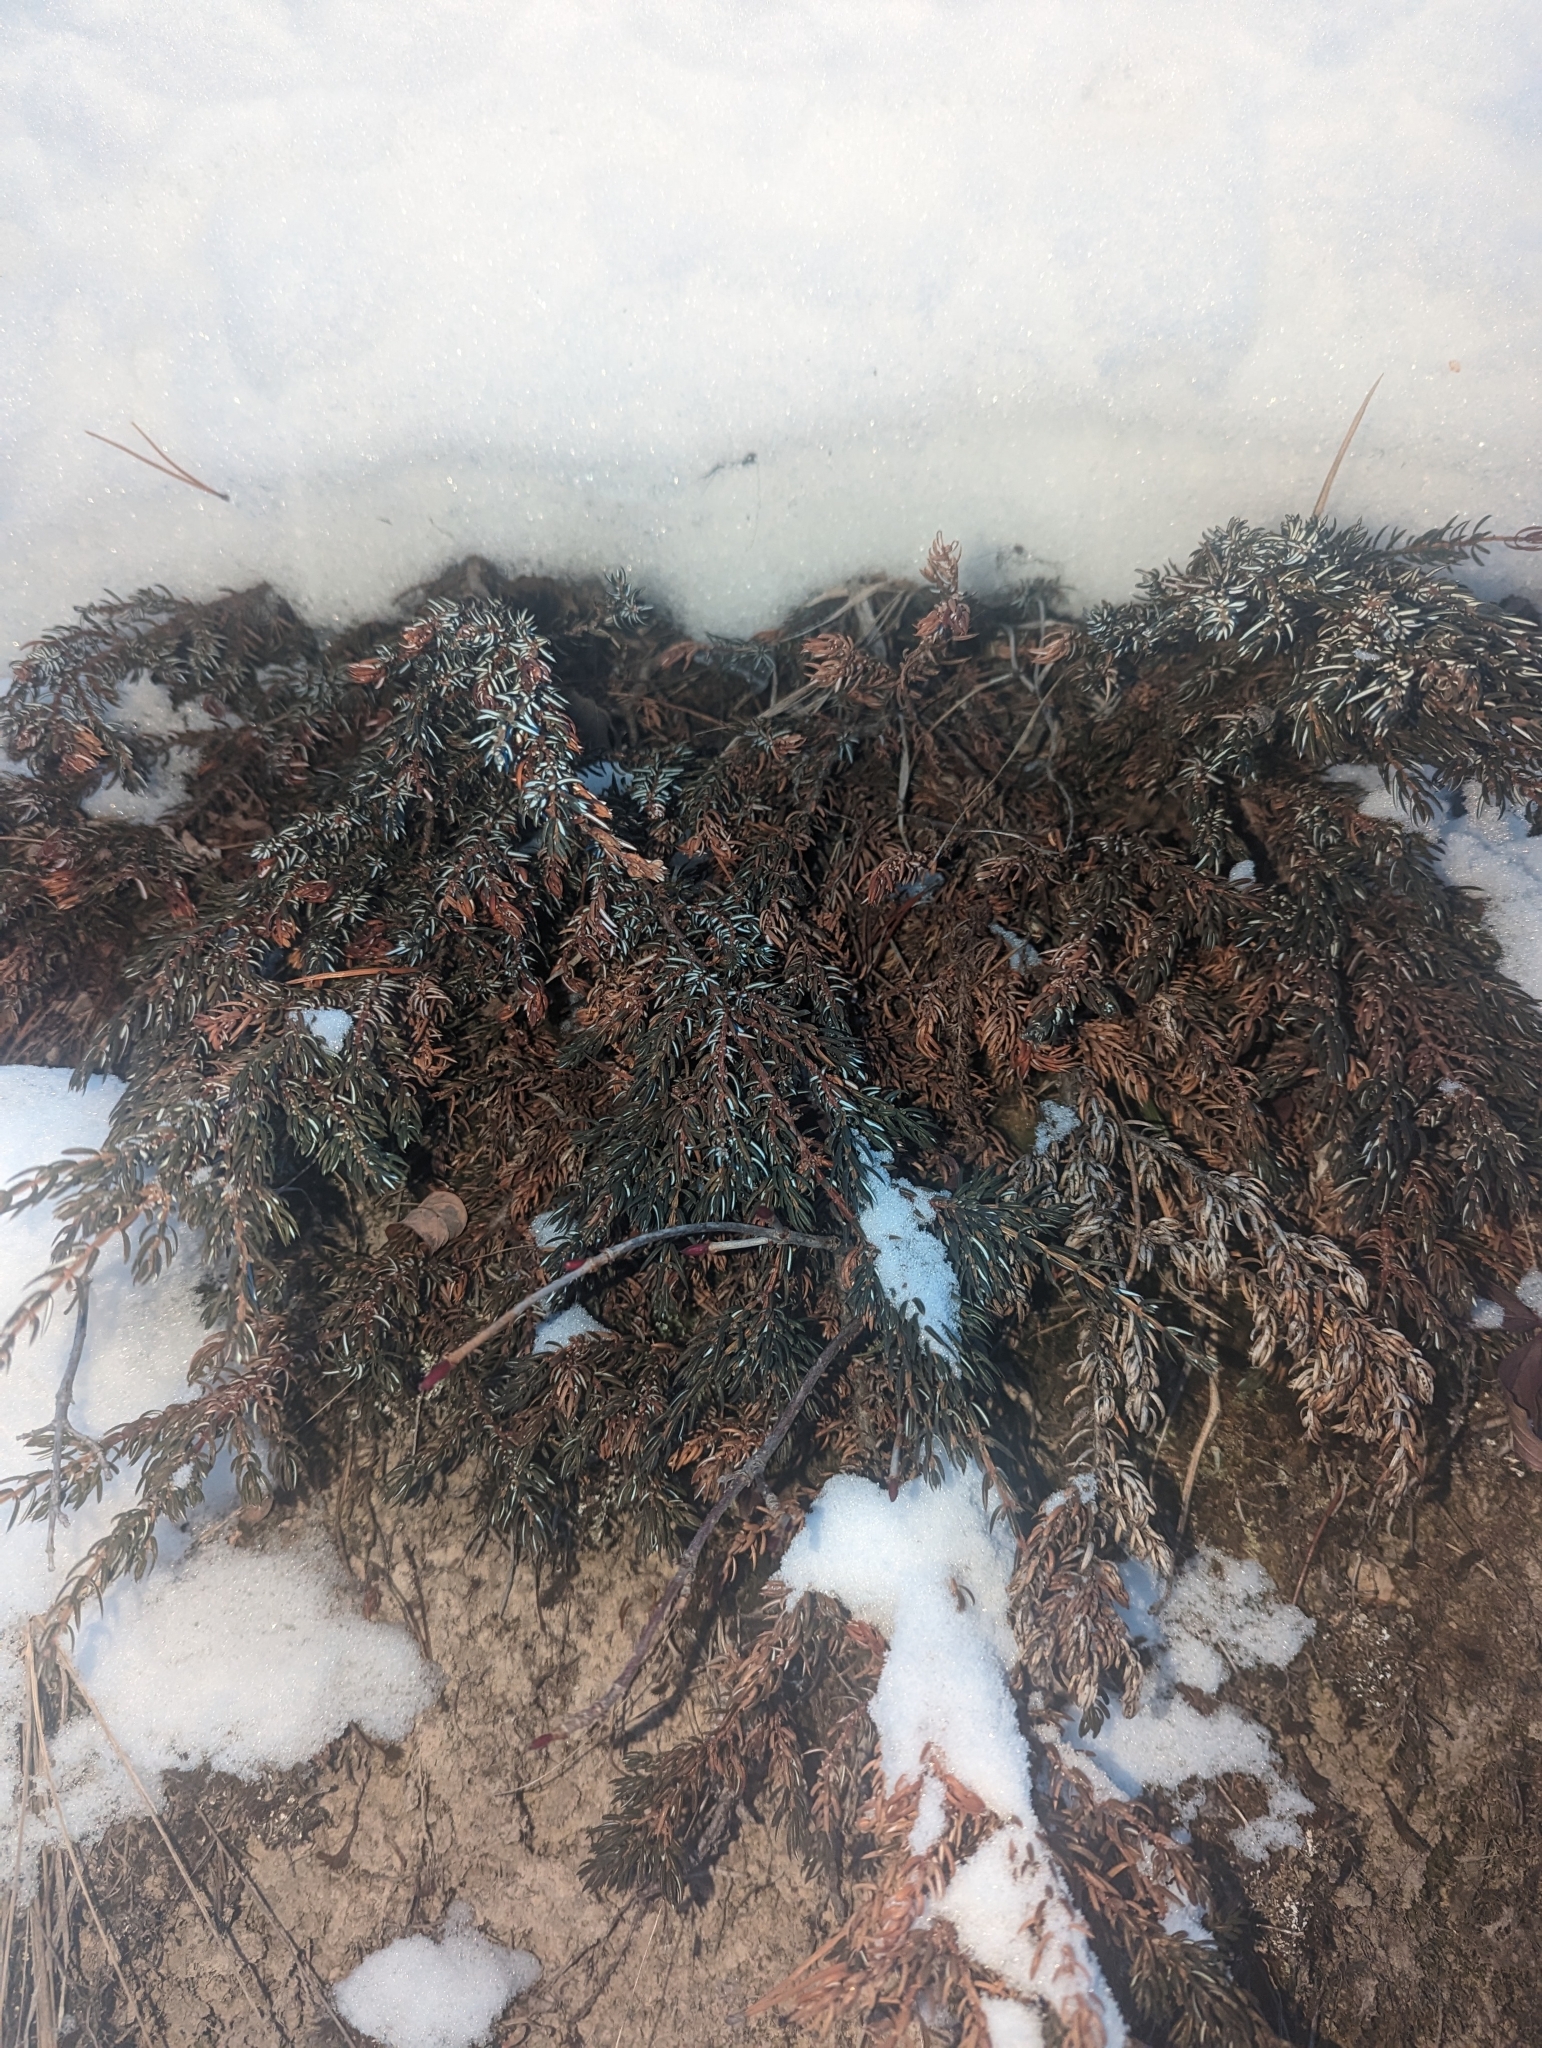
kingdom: Plantae
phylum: Tracheophyta
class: Pinopsida
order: Pinales
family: Cupressaceae
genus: Juniperus
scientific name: Juniperus communis
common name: Common juniper
